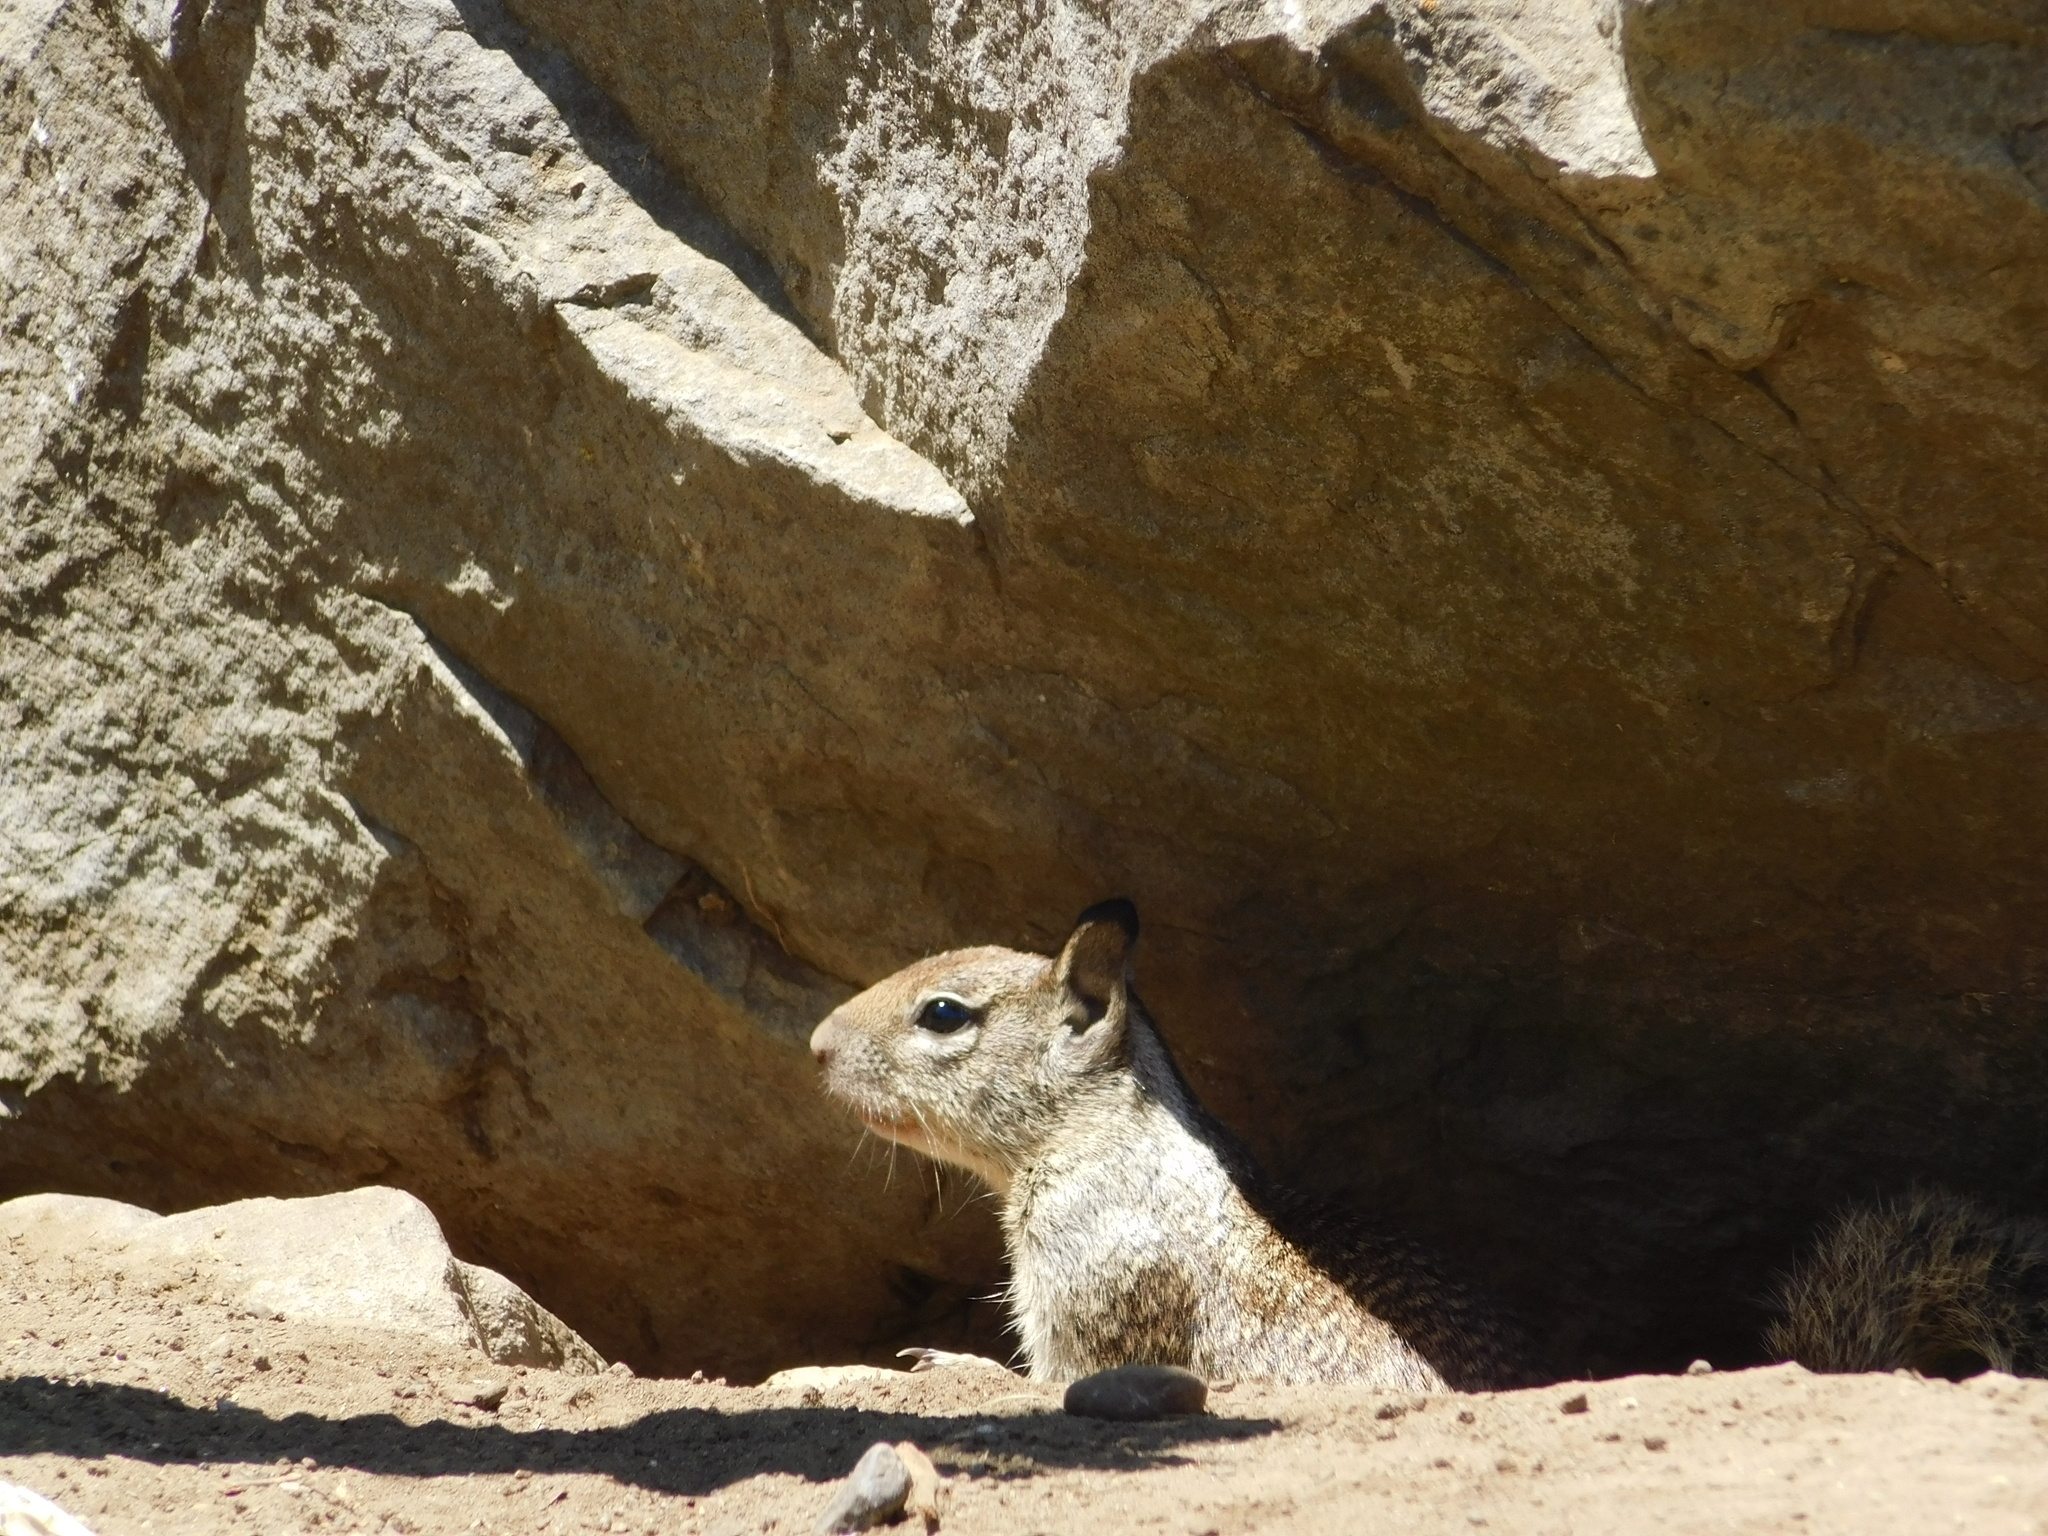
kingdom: Animalia
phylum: Chordata
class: Mammalia
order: Rodentia
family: Sciuridae
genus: Otospermophilus
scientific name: Otospermophilus beecheyi
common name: California ground squirrel
